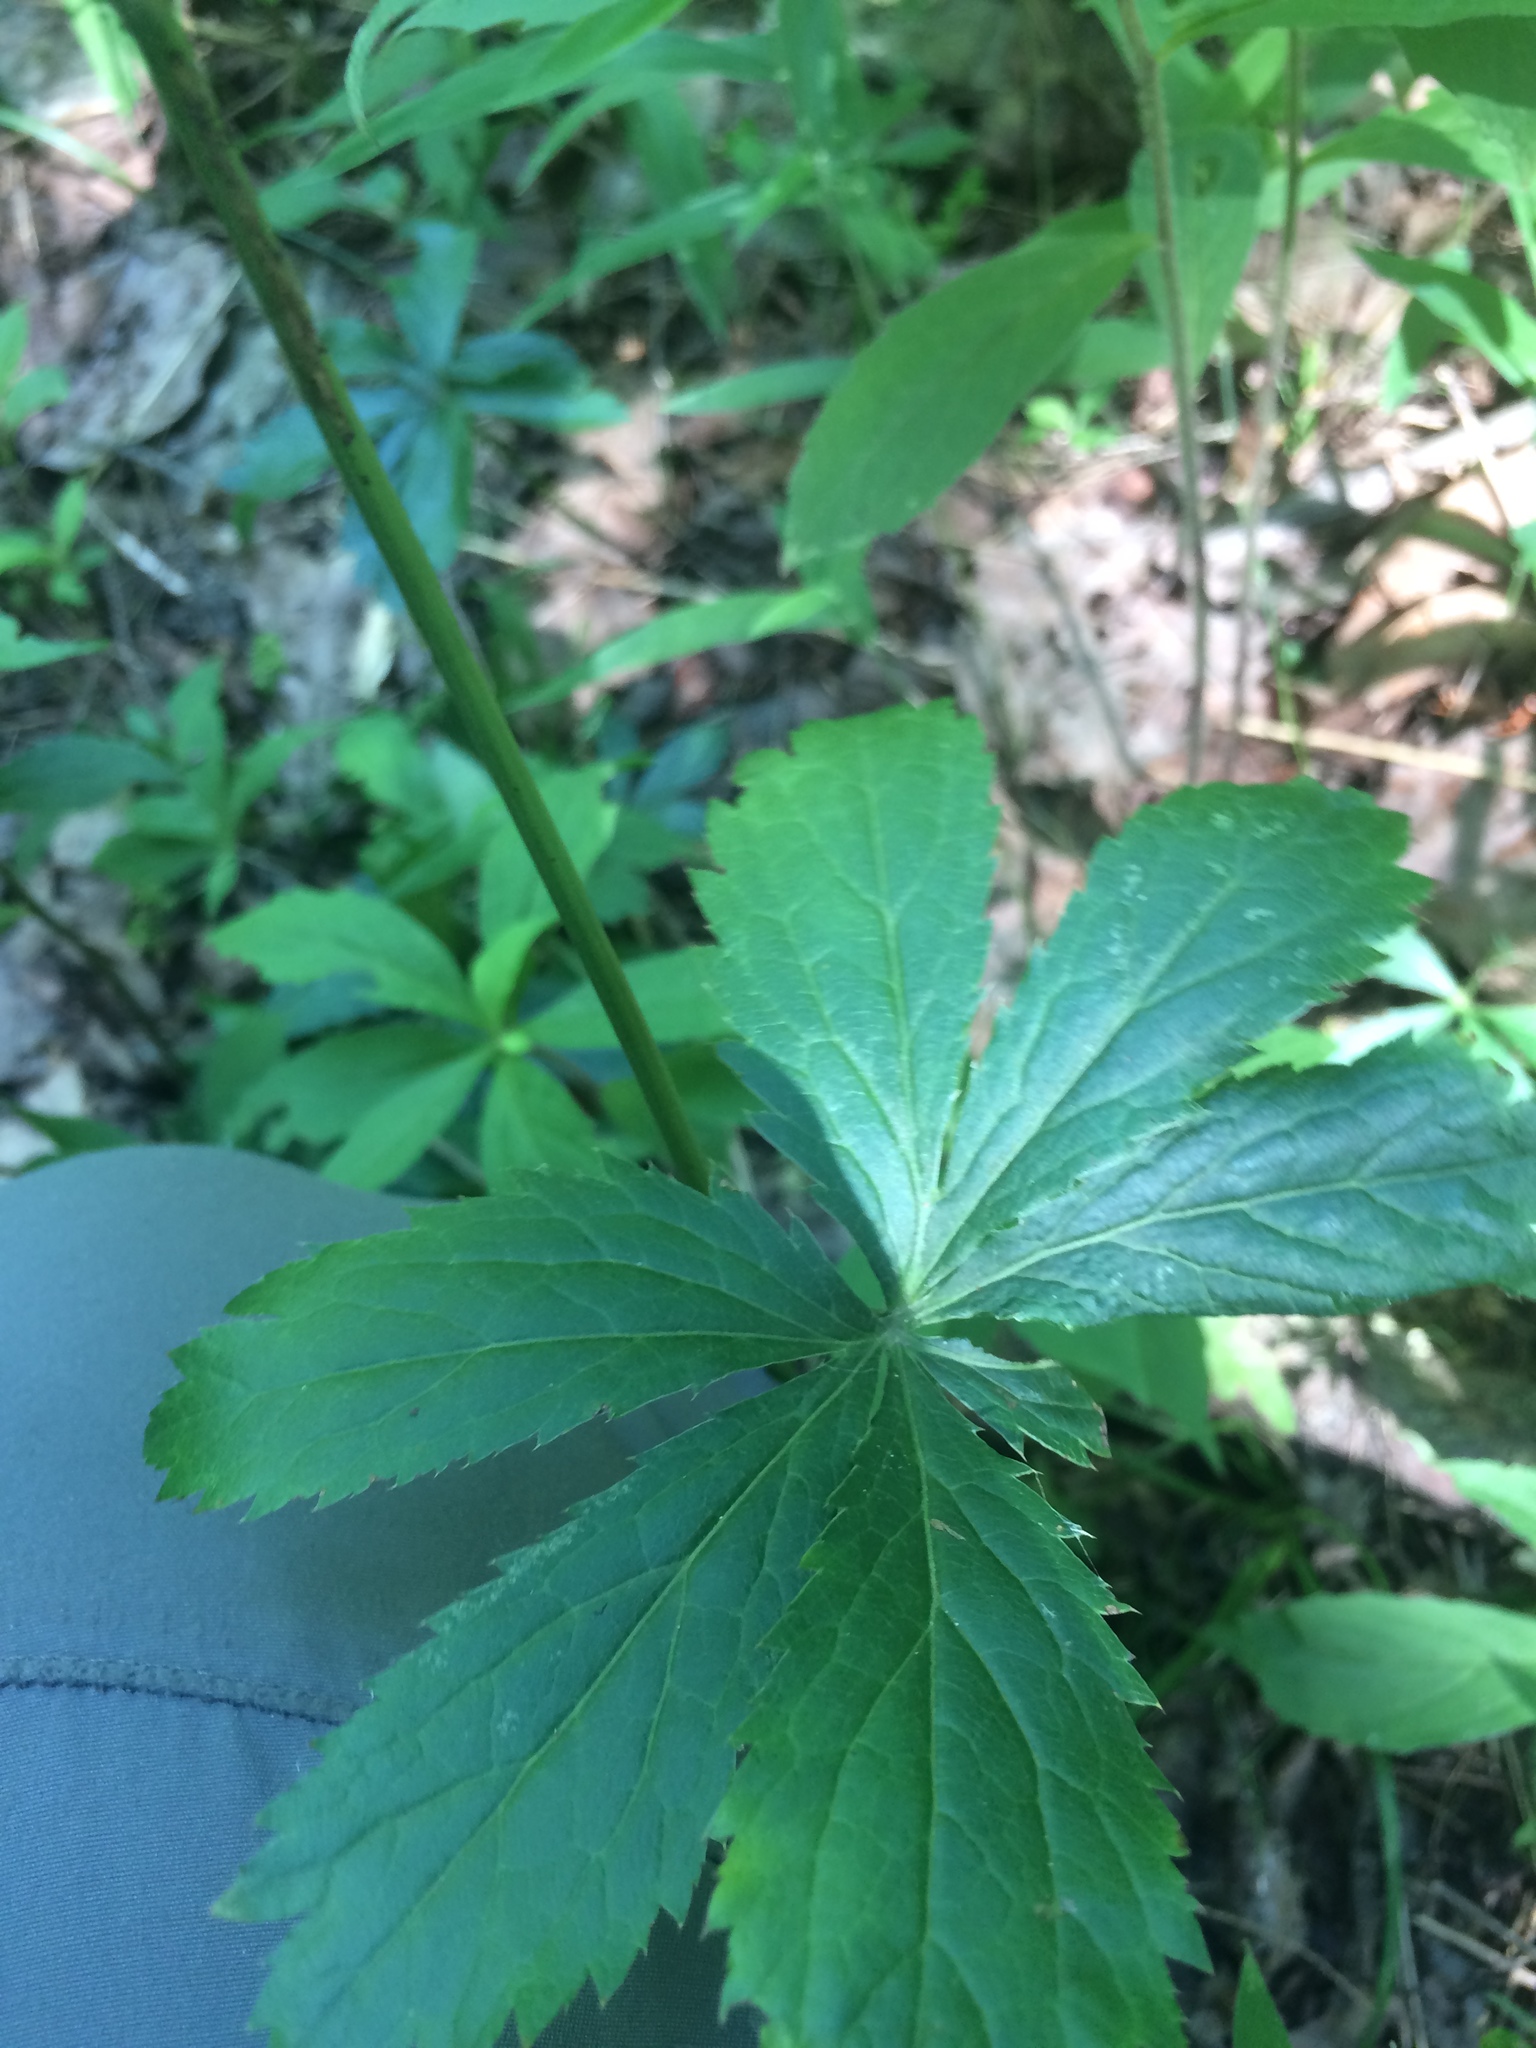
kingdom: Plantae
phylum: Tracheophyta
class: Magnoliopsida
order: Apiales
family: Apiaceae
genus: Sanicula
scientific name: Sanicula marilandica
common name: Black snakeroot
